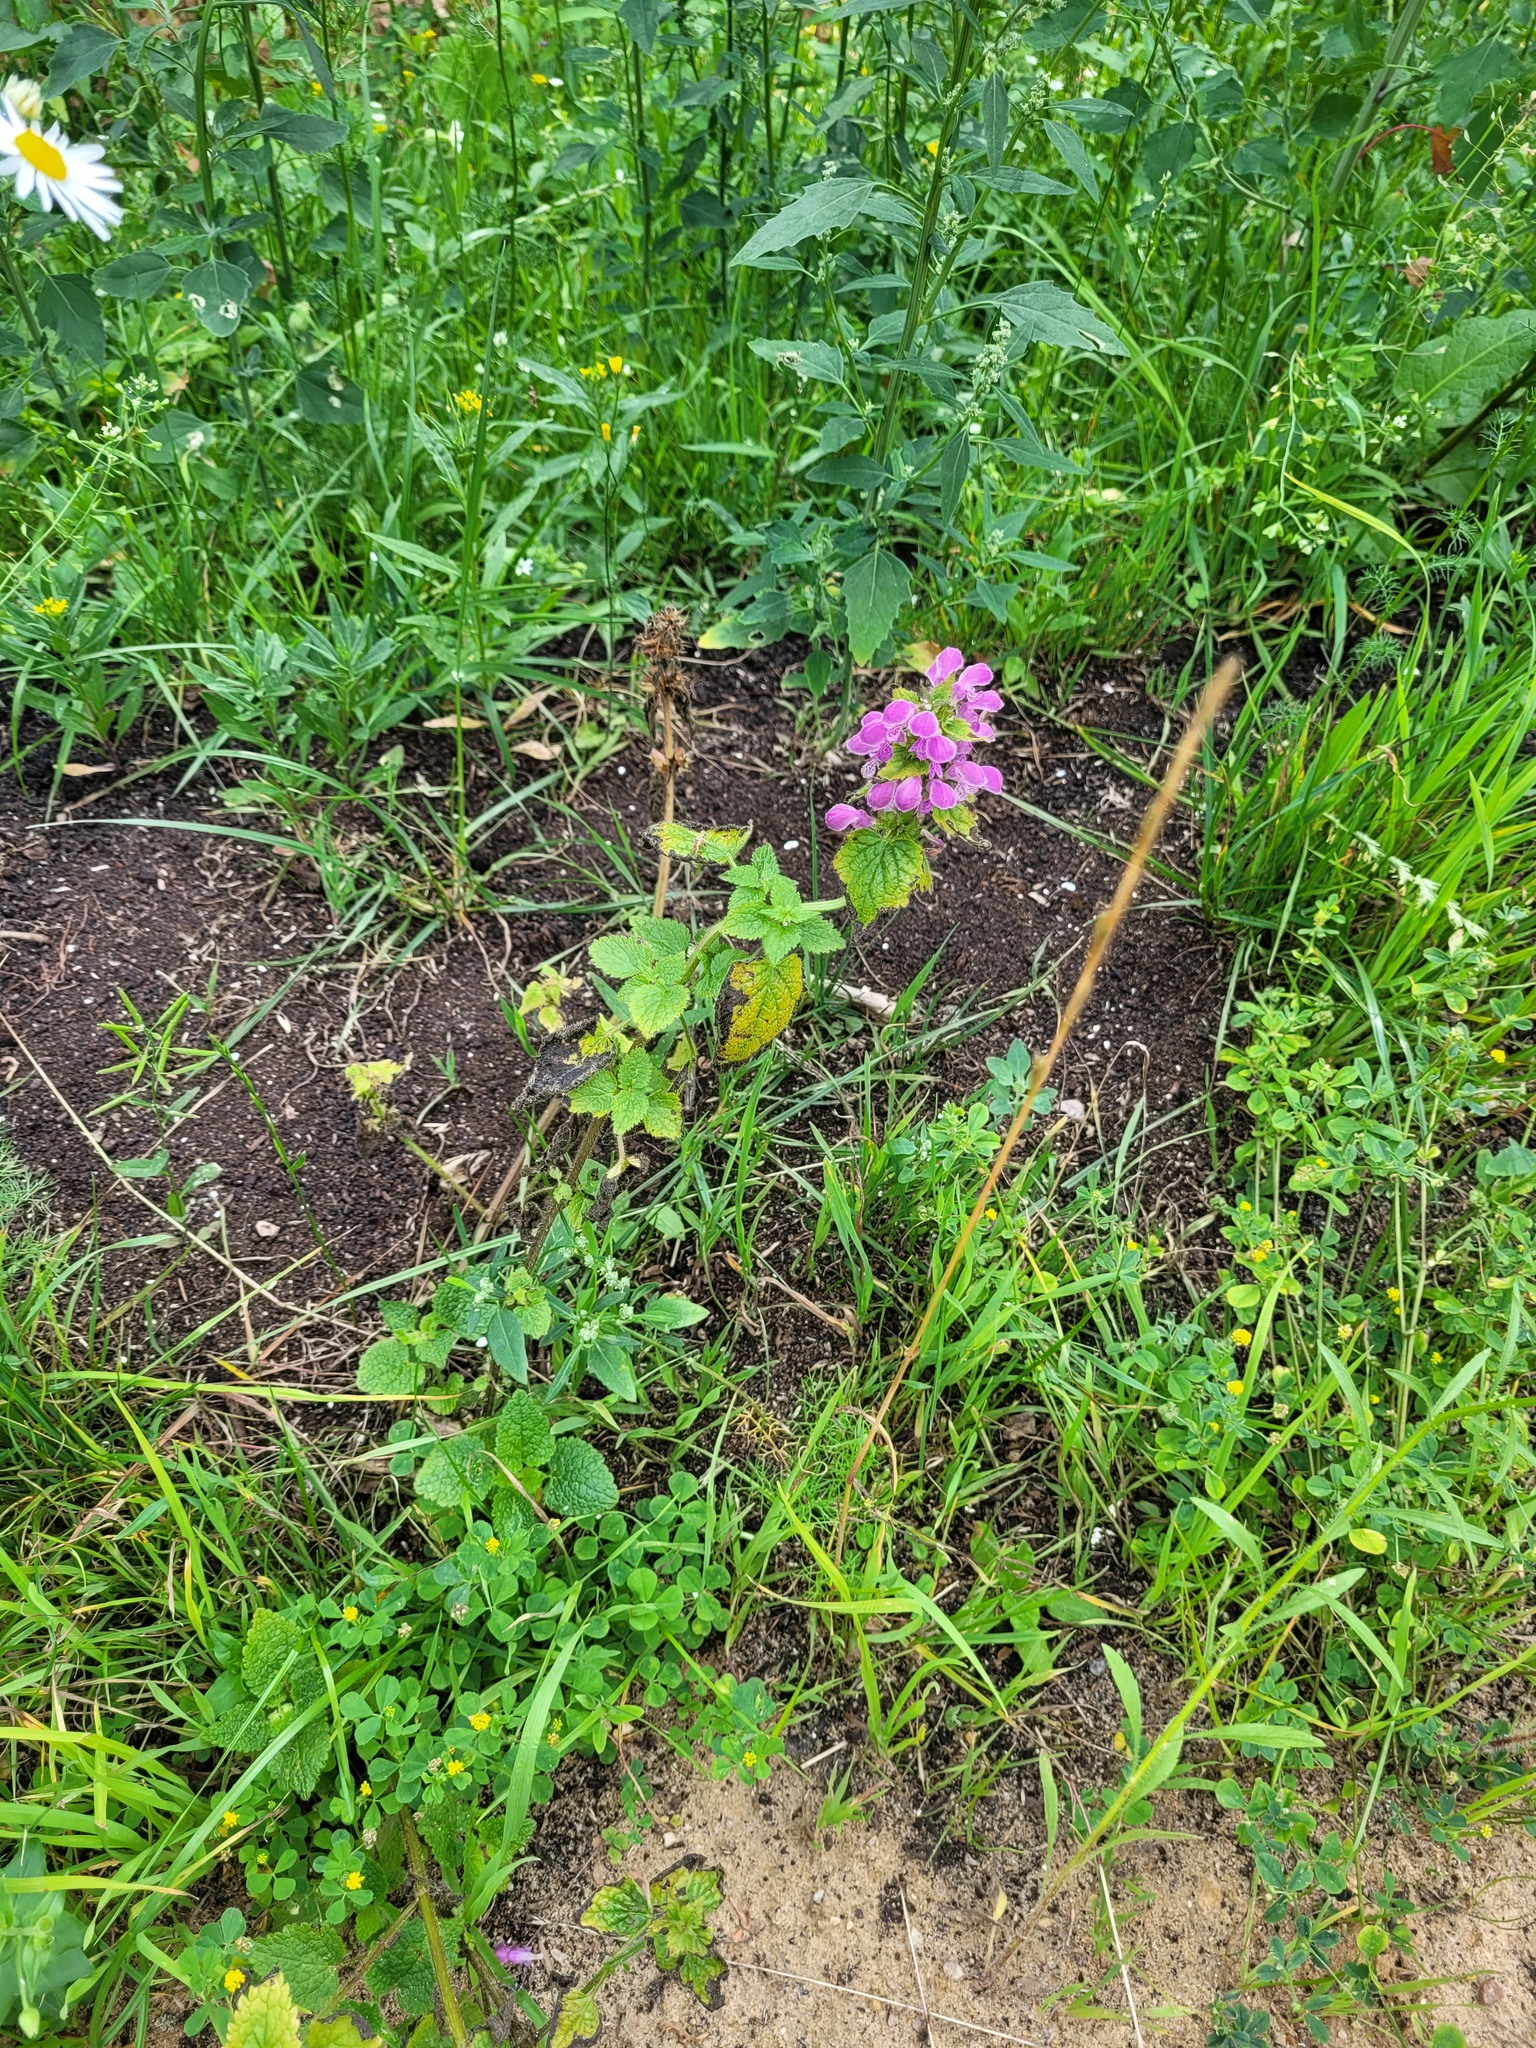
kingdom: Plantae
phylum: Tracheophyta
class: Magnoliopsida
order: Lamiales
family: Lamiaceae
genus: Lamium
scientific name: Lamium maculatum
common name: Spotted dead-nettle
